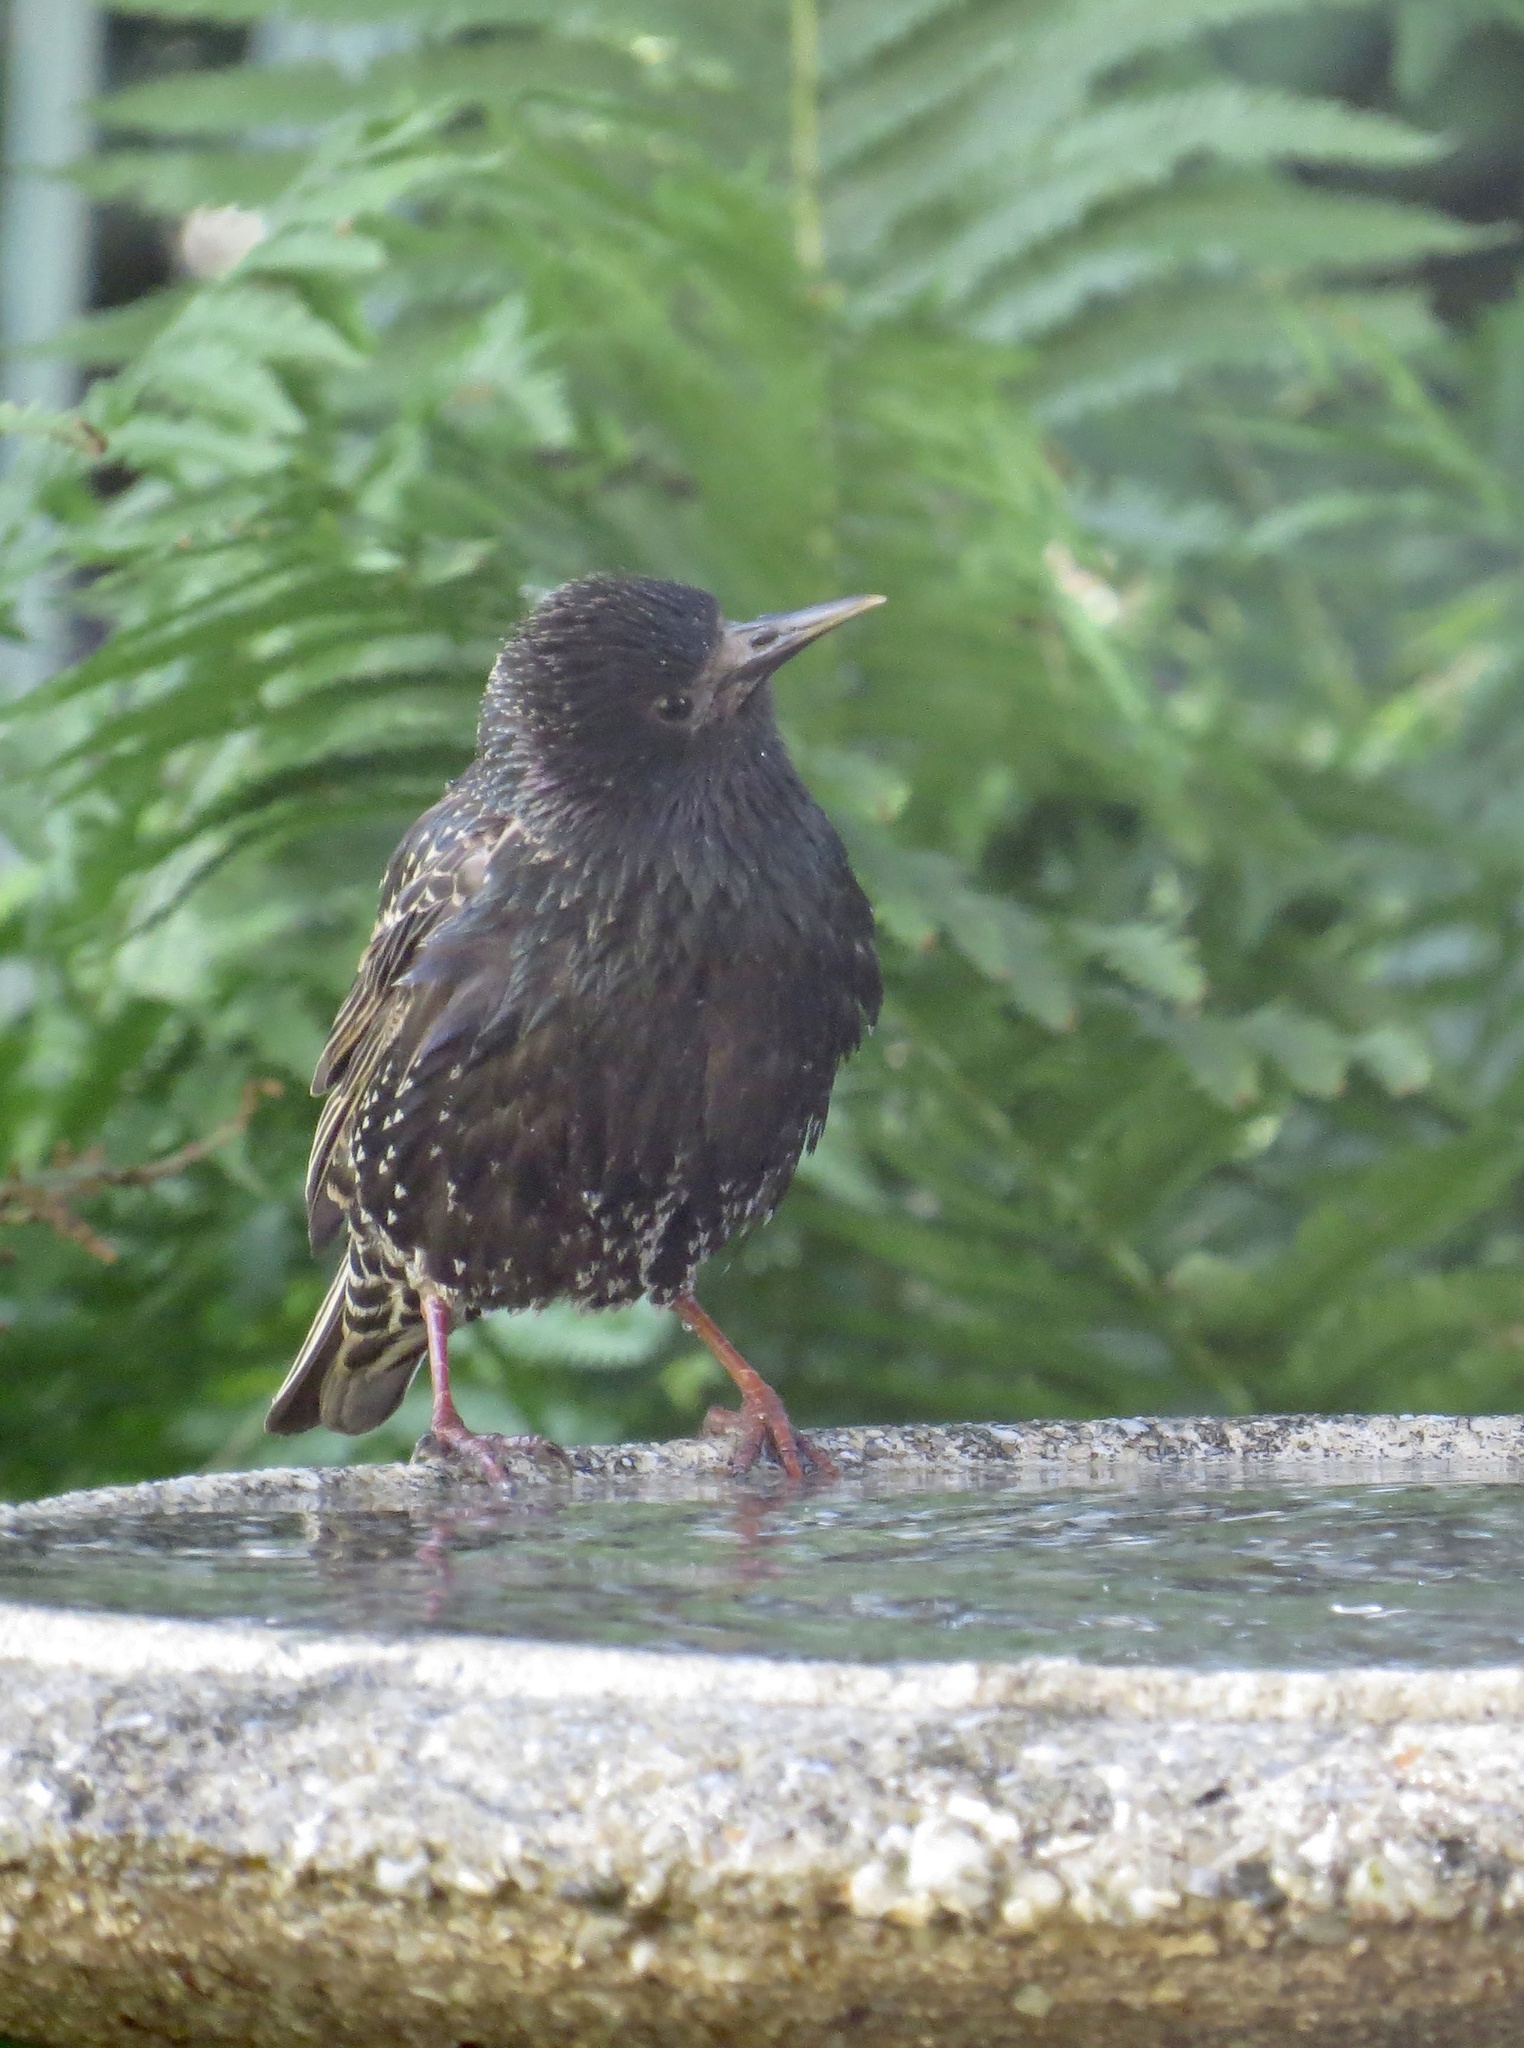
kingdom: Animalia
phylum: Chordata
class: Aves
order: Passeriformes
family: Sturnidae
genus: Sturnus
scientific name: Sturnus vulgaris
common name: Common starling
